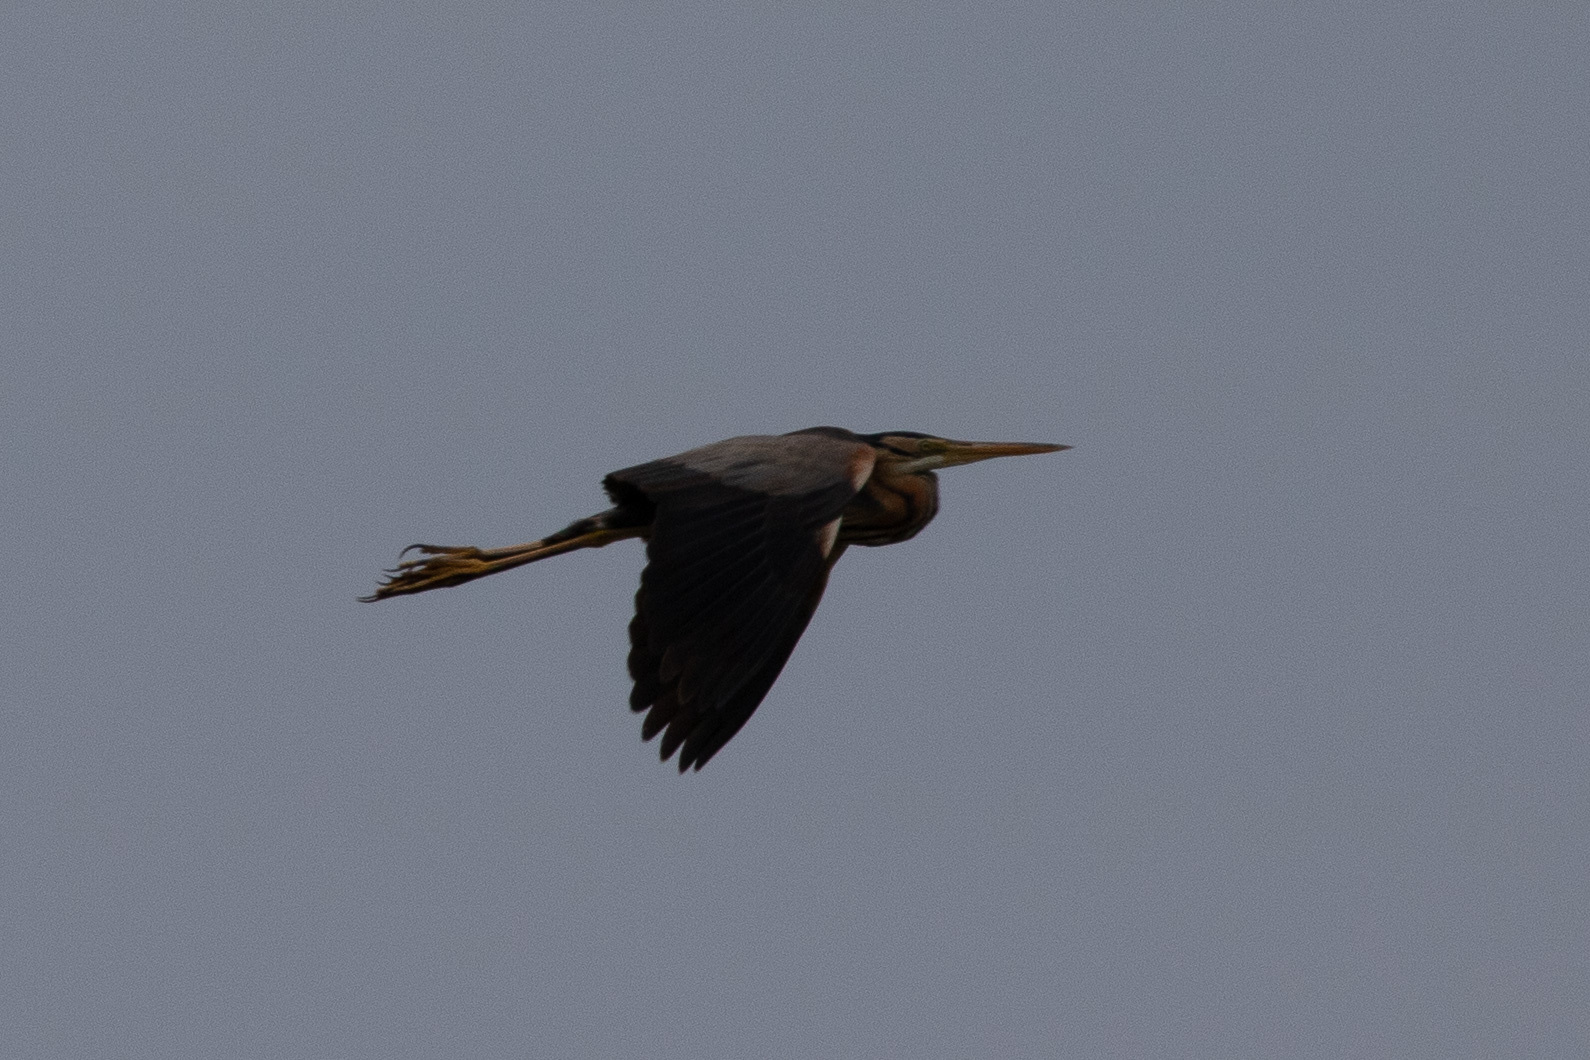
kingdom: Animalia
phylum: Chordata
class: Aves
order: Pelecaniformes
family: Ardeidae
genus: Ardea
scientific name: Ardea purpurea
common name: Purple heron
